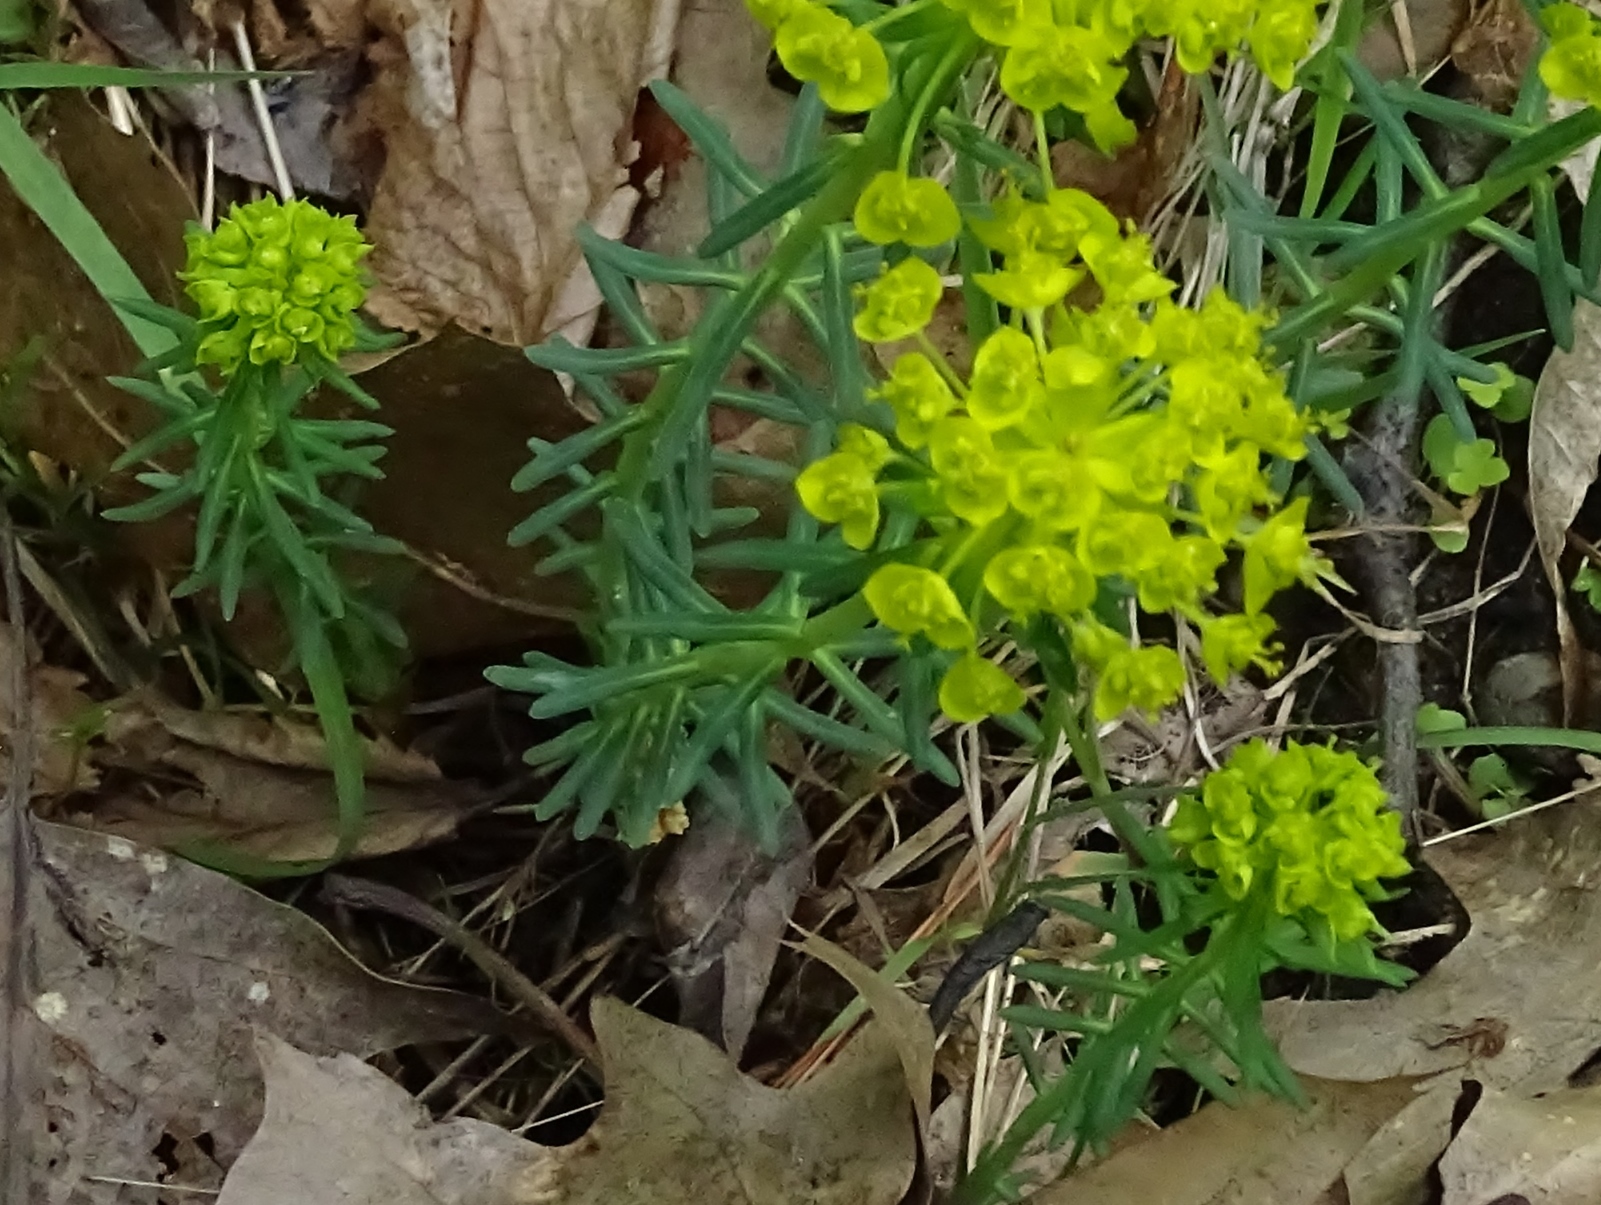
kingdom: Plantae
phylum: Tracheophyta
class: Magnoliopsida
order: Malpighiales
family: Euphorbiaceae
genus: Euphorbia
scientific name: Euphorbia cyparissias
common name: Cypress spurge
